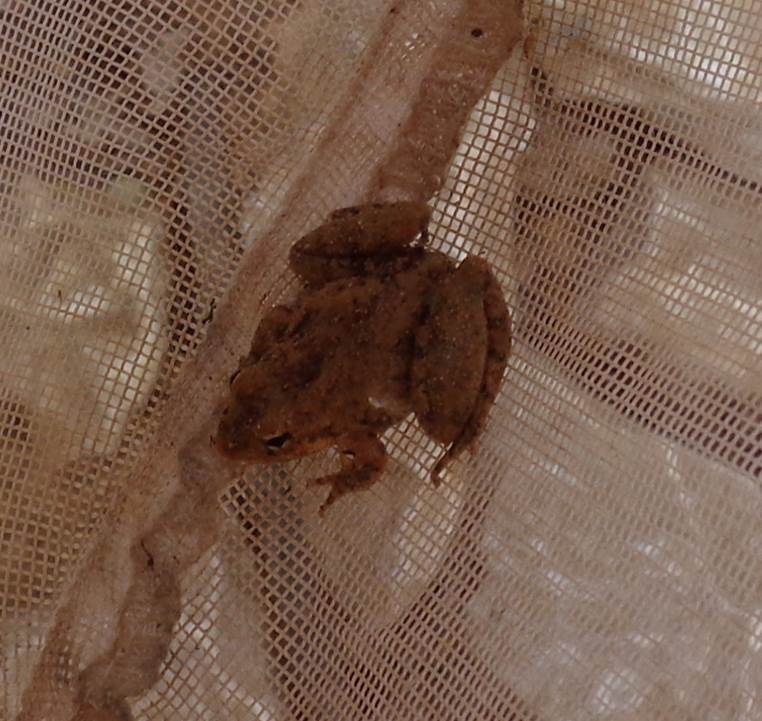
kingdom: Animalia
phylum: Chordata
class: Amphibia
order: Anura
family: Hylidae
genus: Acris
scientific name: Acris blanchardi
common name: Blanchard's cricket frog
